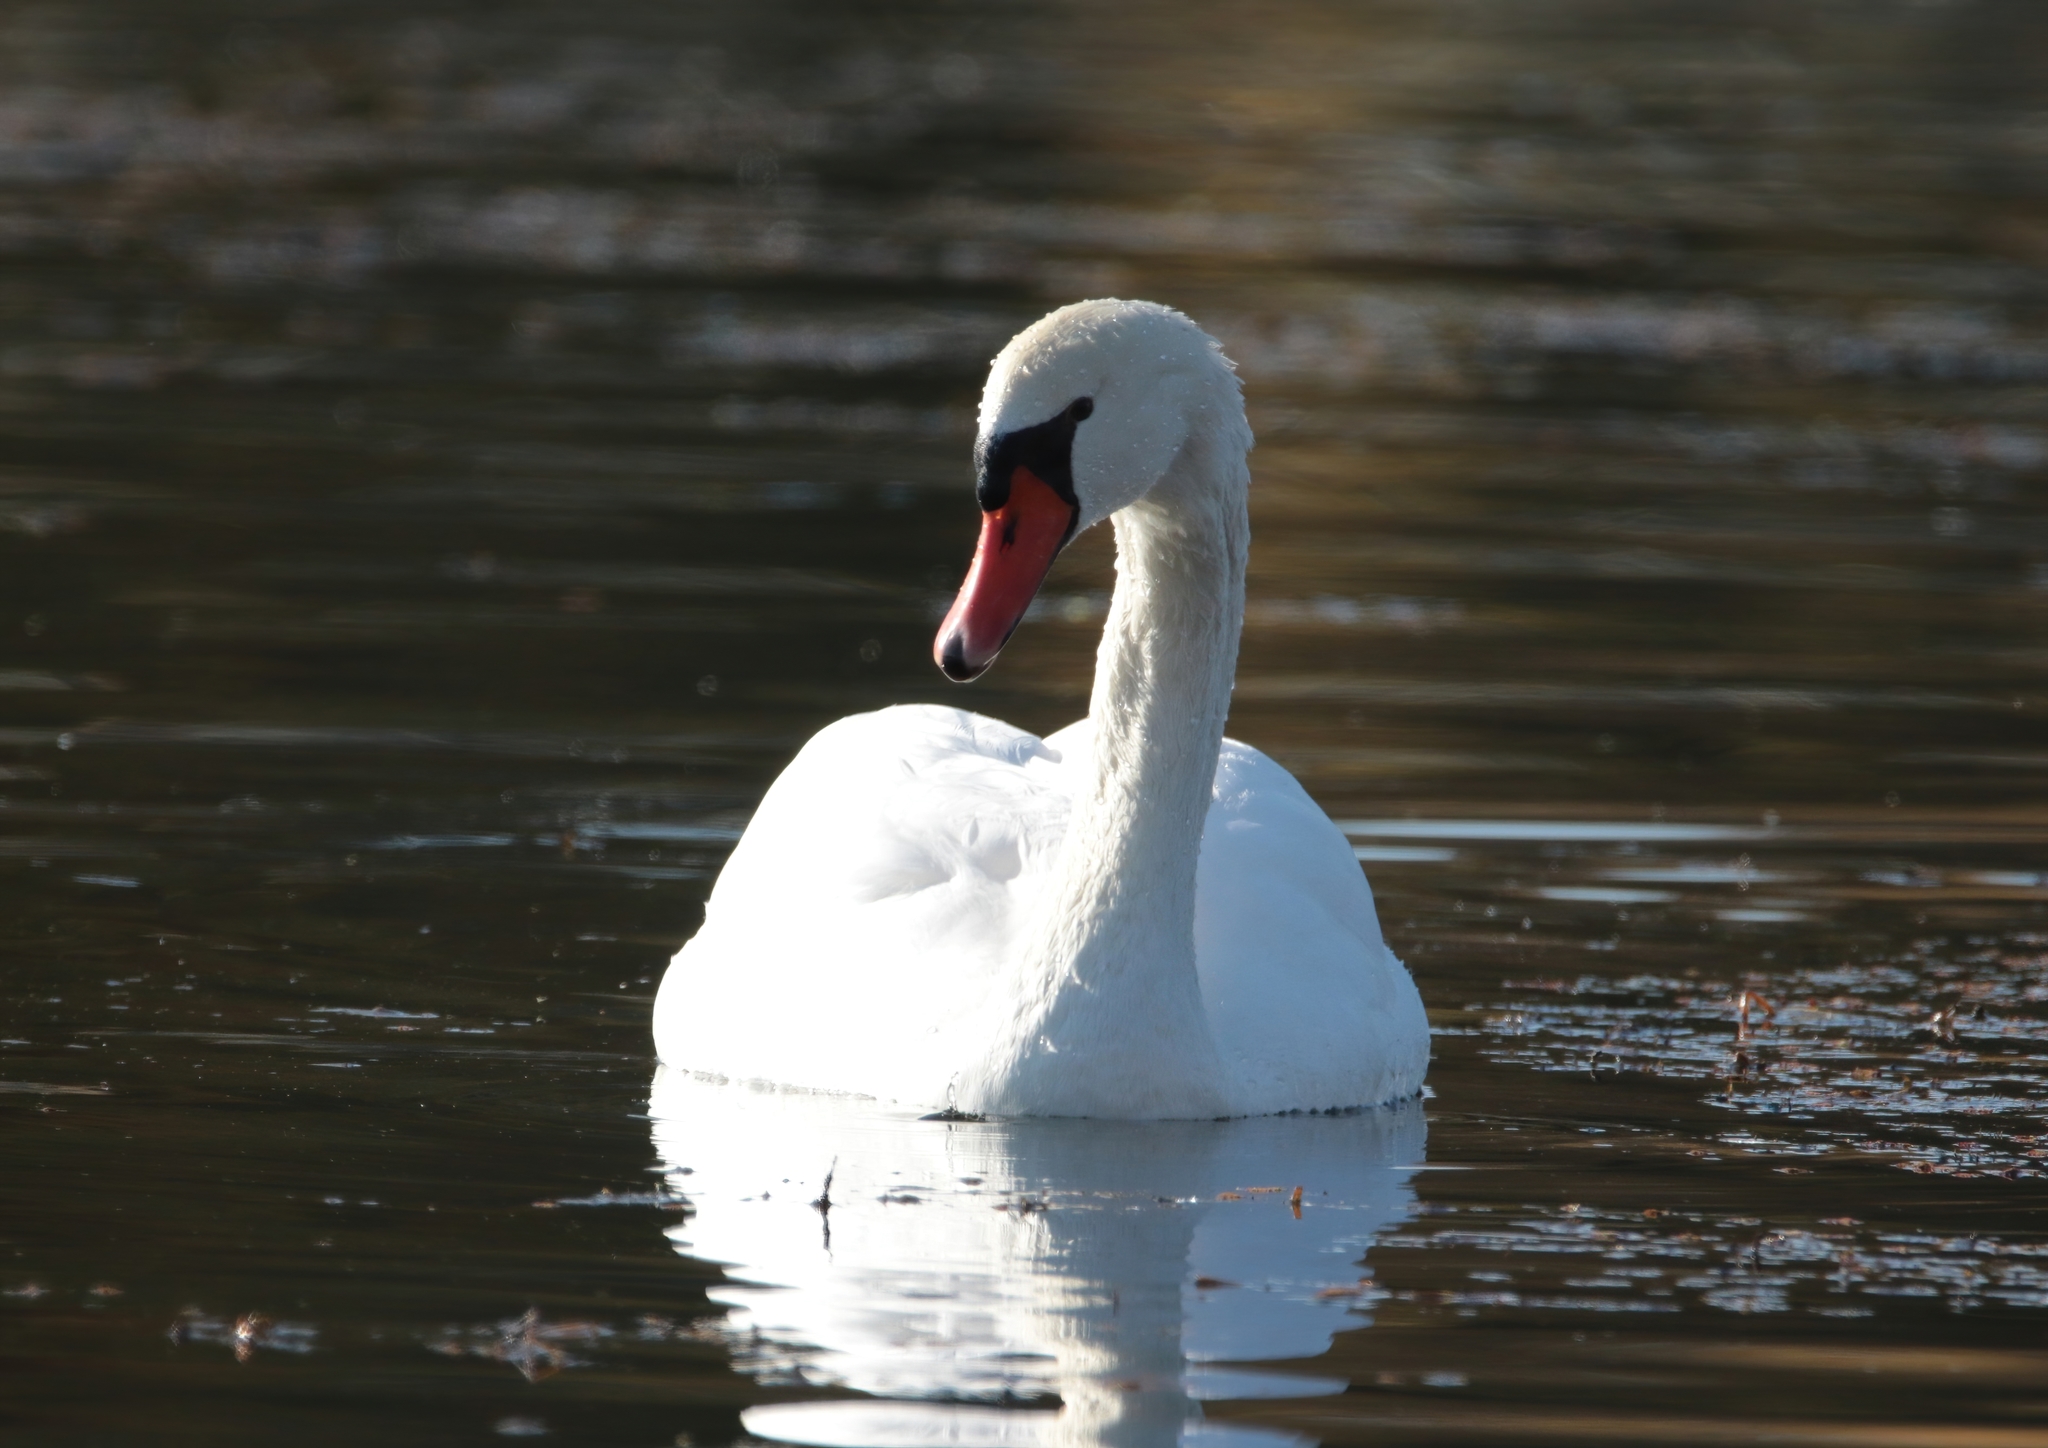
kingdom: Animalia
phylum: Chordata
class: Aves
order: Anseriformes
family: Anatidae
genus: Cygnus
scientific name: Cygnus olor
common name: Mute swan
